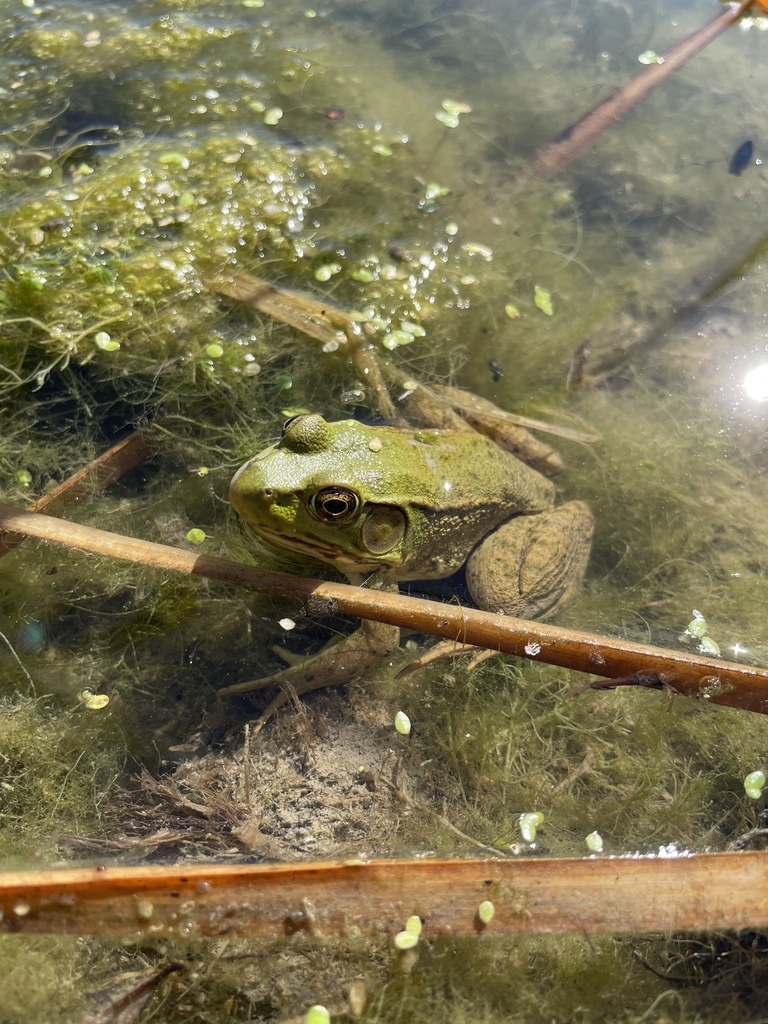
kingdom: Animalia
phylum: Chordata
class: Amphibia
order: Anura
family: Ranidae
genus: Lithobates
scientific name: Lithobates clamitans
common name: Green frog
